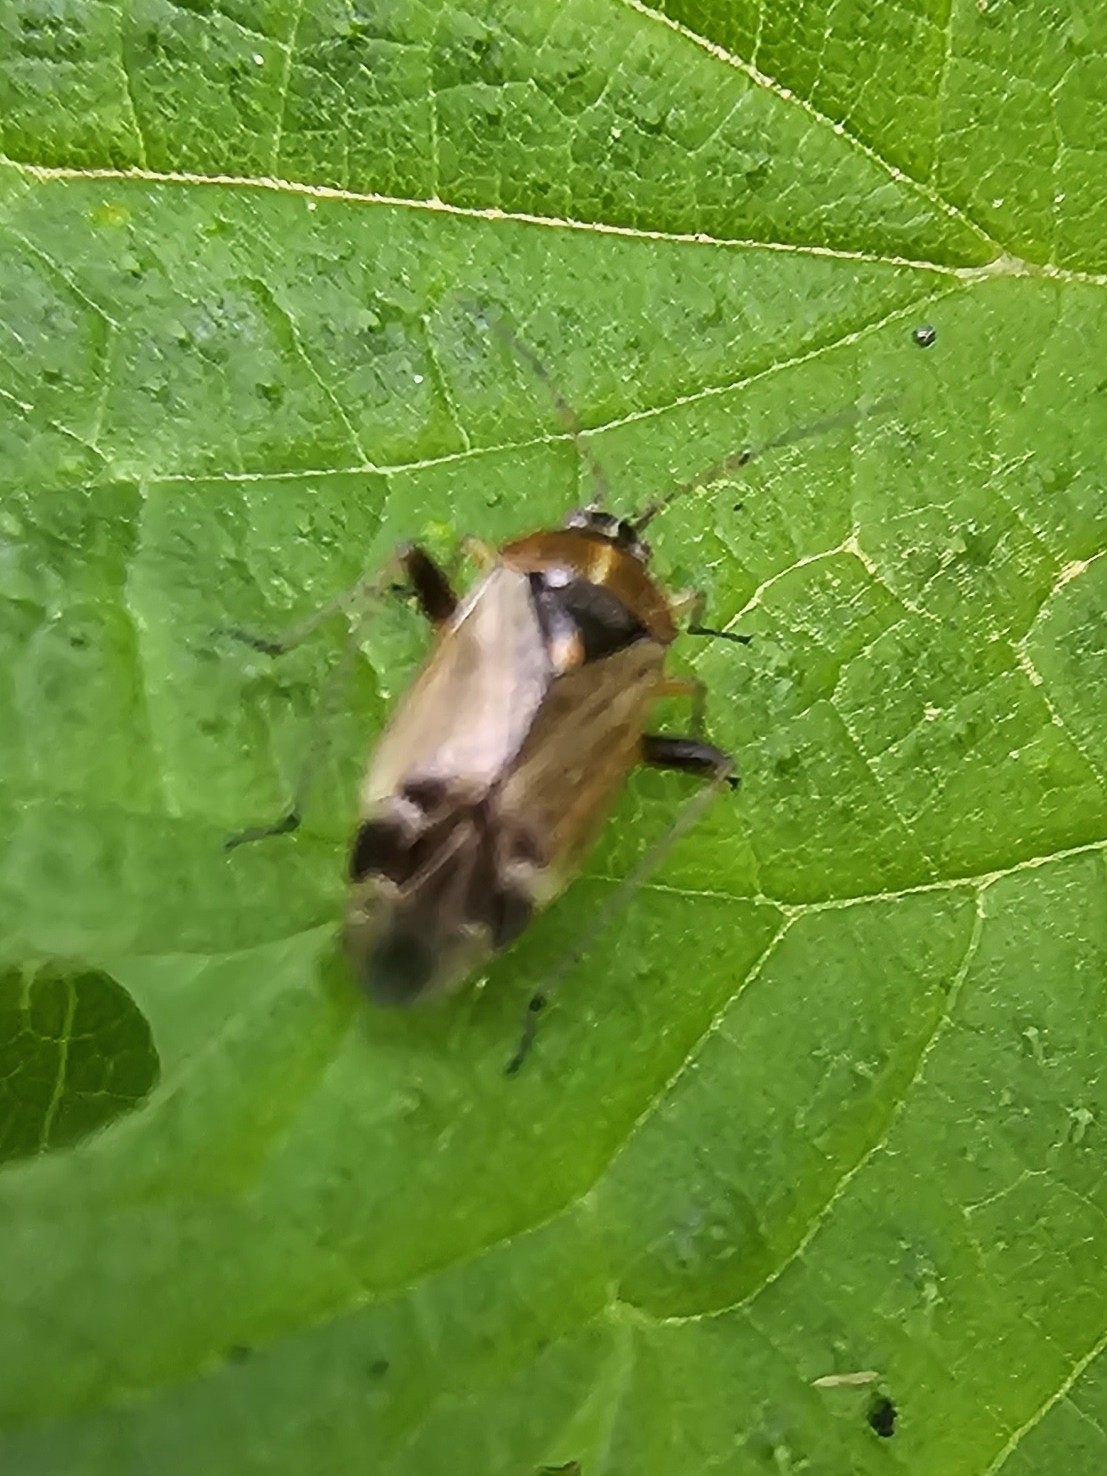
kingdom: Animalia
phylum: Arthropoda
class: Insecta
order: Hemiptera
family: Miridae
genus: Harpocera
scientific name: Harpocera thoracica
